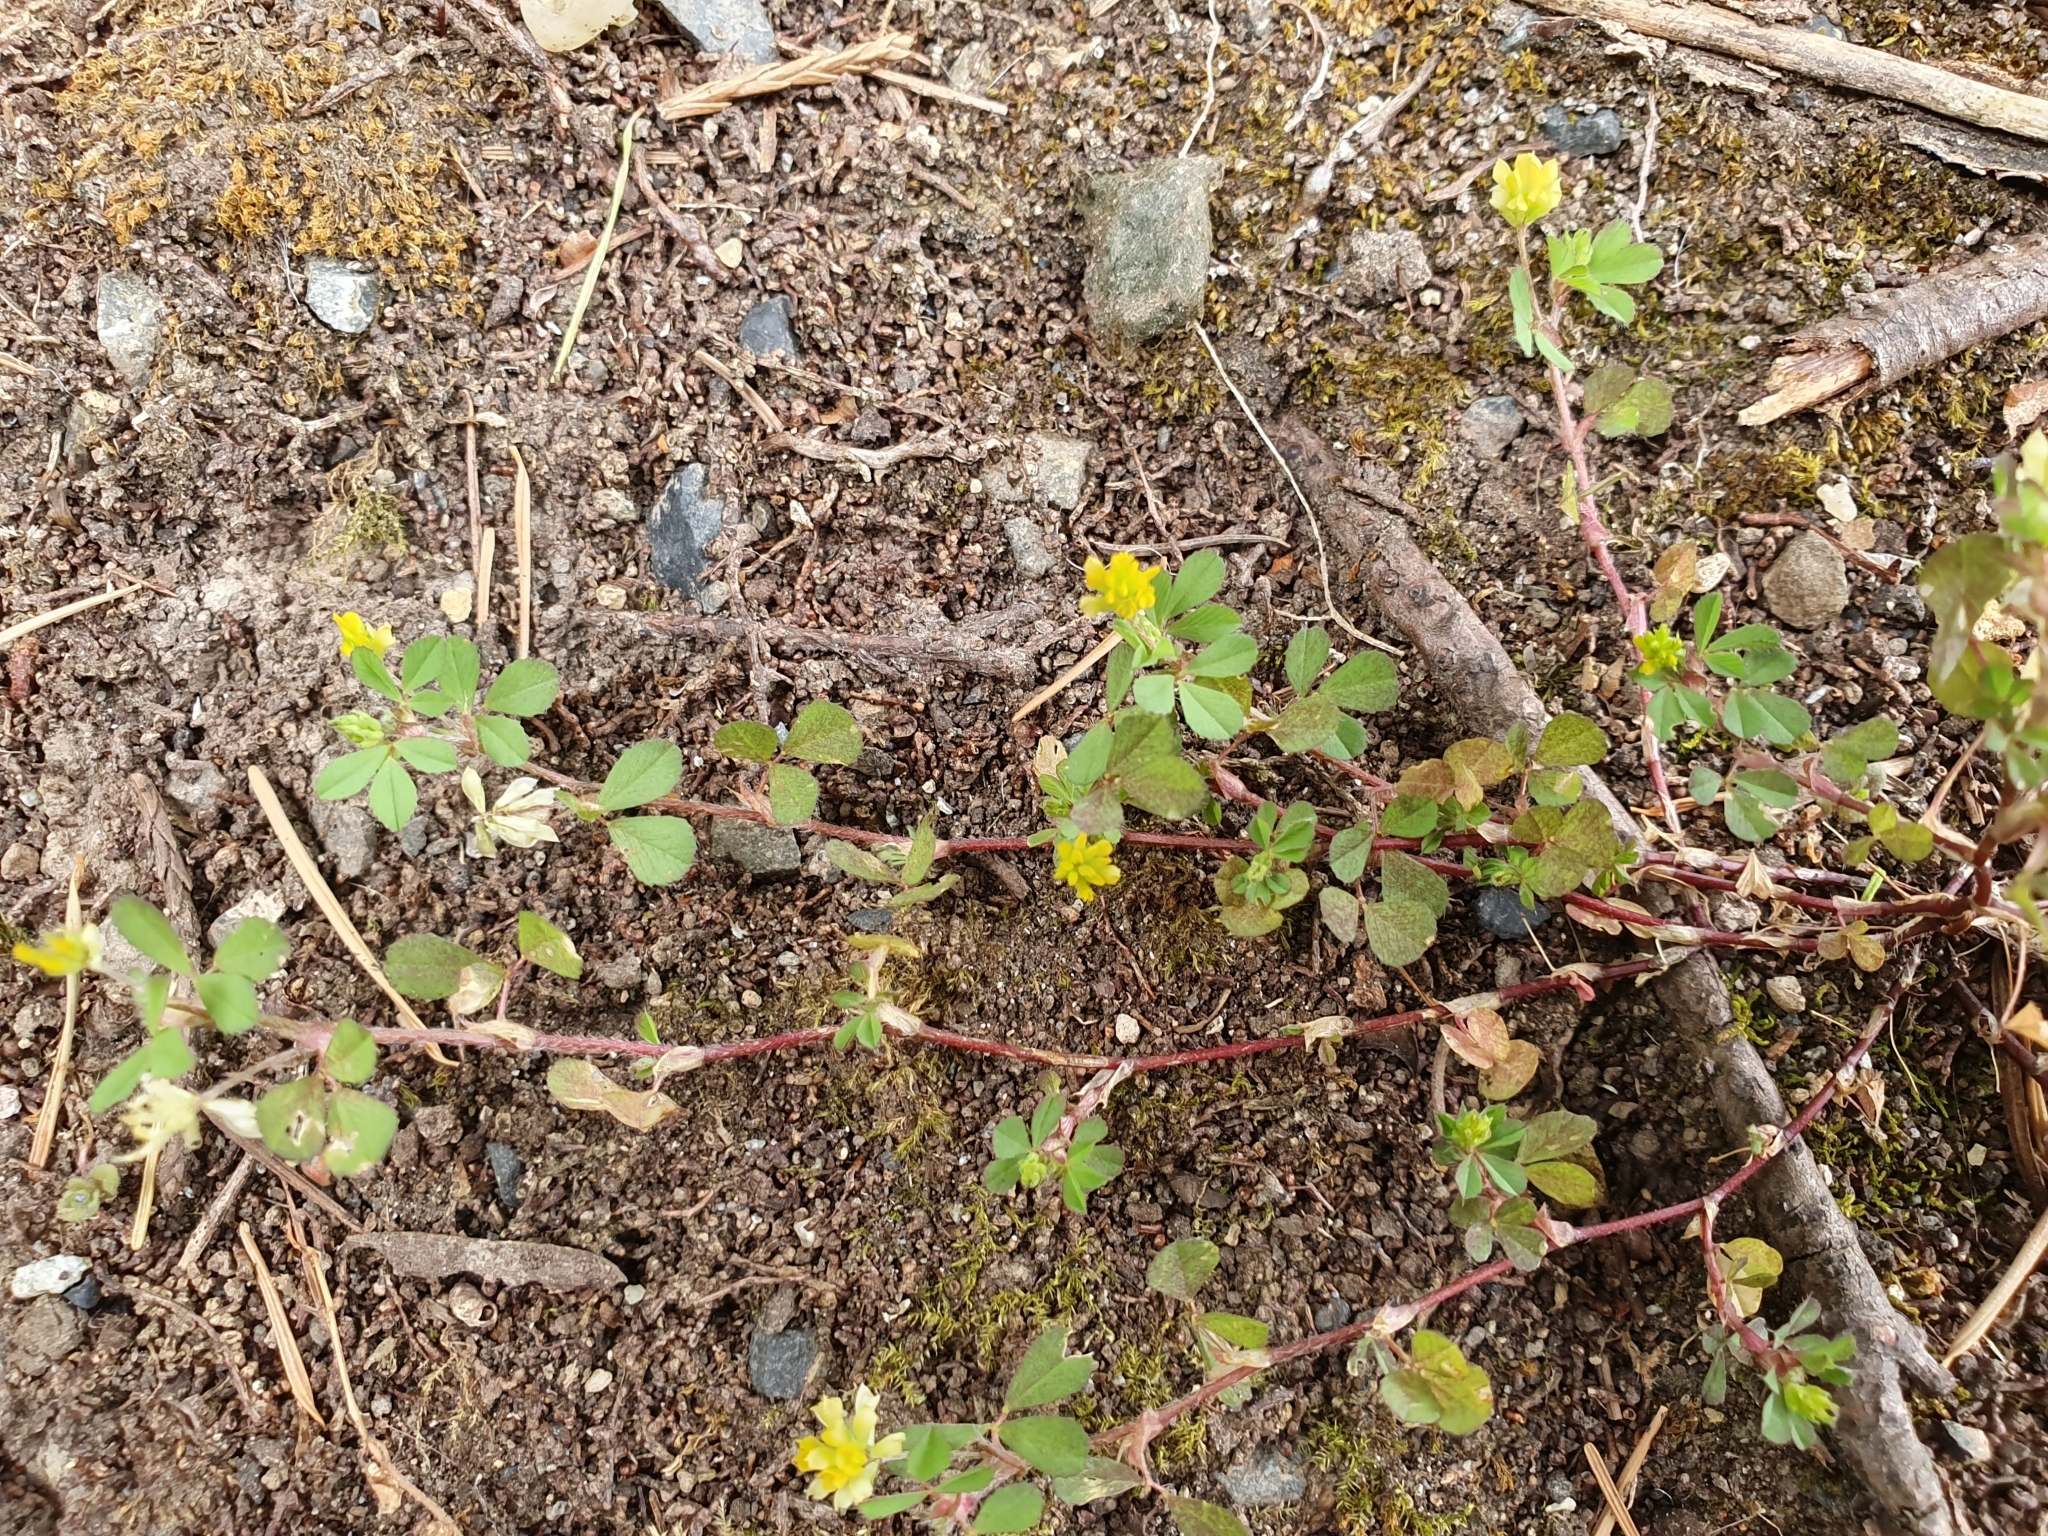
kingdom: Plantae
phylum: Tracheophyta
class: Magnoliopsida
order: Fabales
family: Fabaceae
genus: Trifolium
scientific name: Trifolium dubium
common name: Suckling clover
